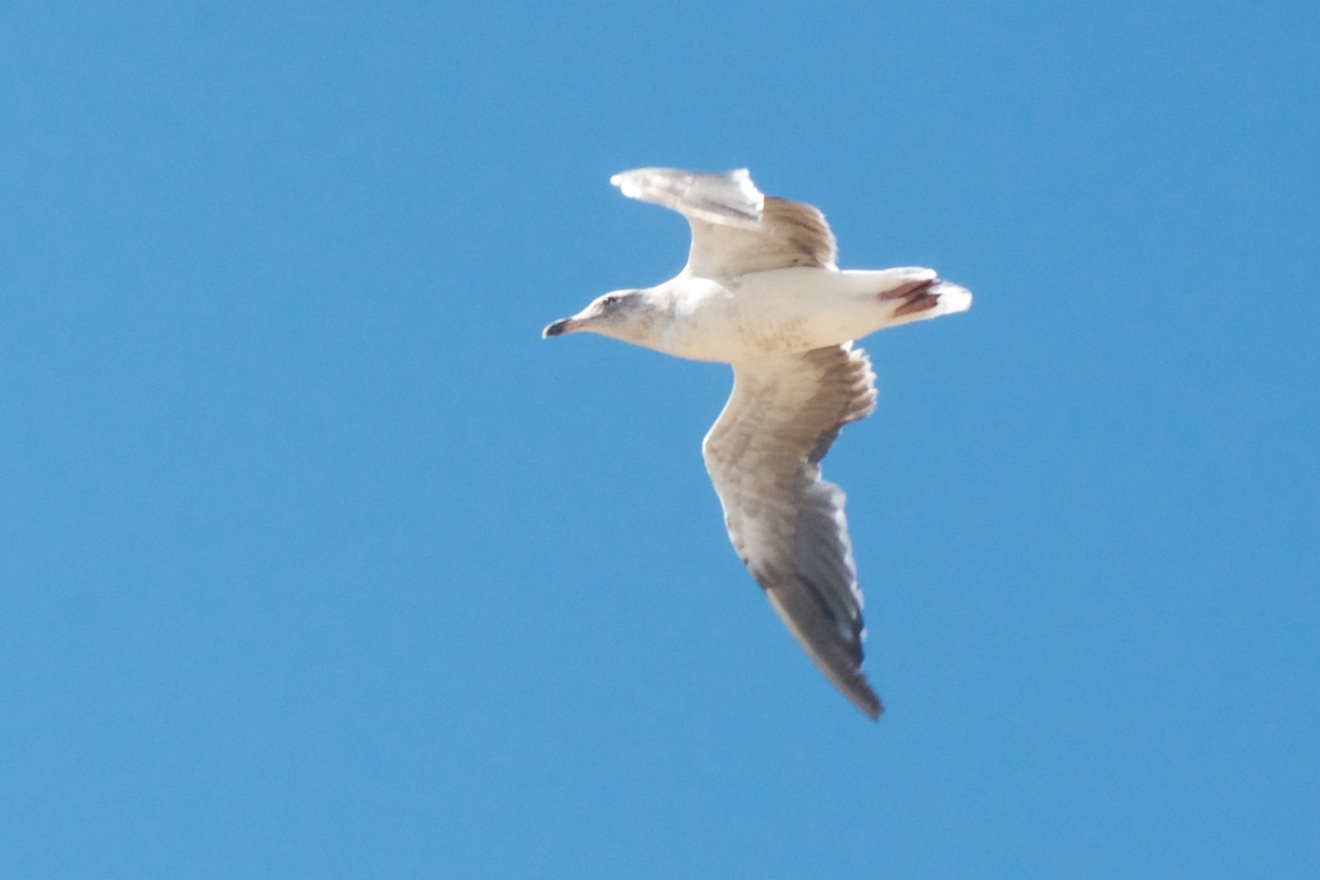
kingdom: Animalia
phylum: Chordata
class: Aves
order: Charadriiformes
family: Laridae
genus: Larus
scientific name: Larus occidentalis
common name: Western gull
